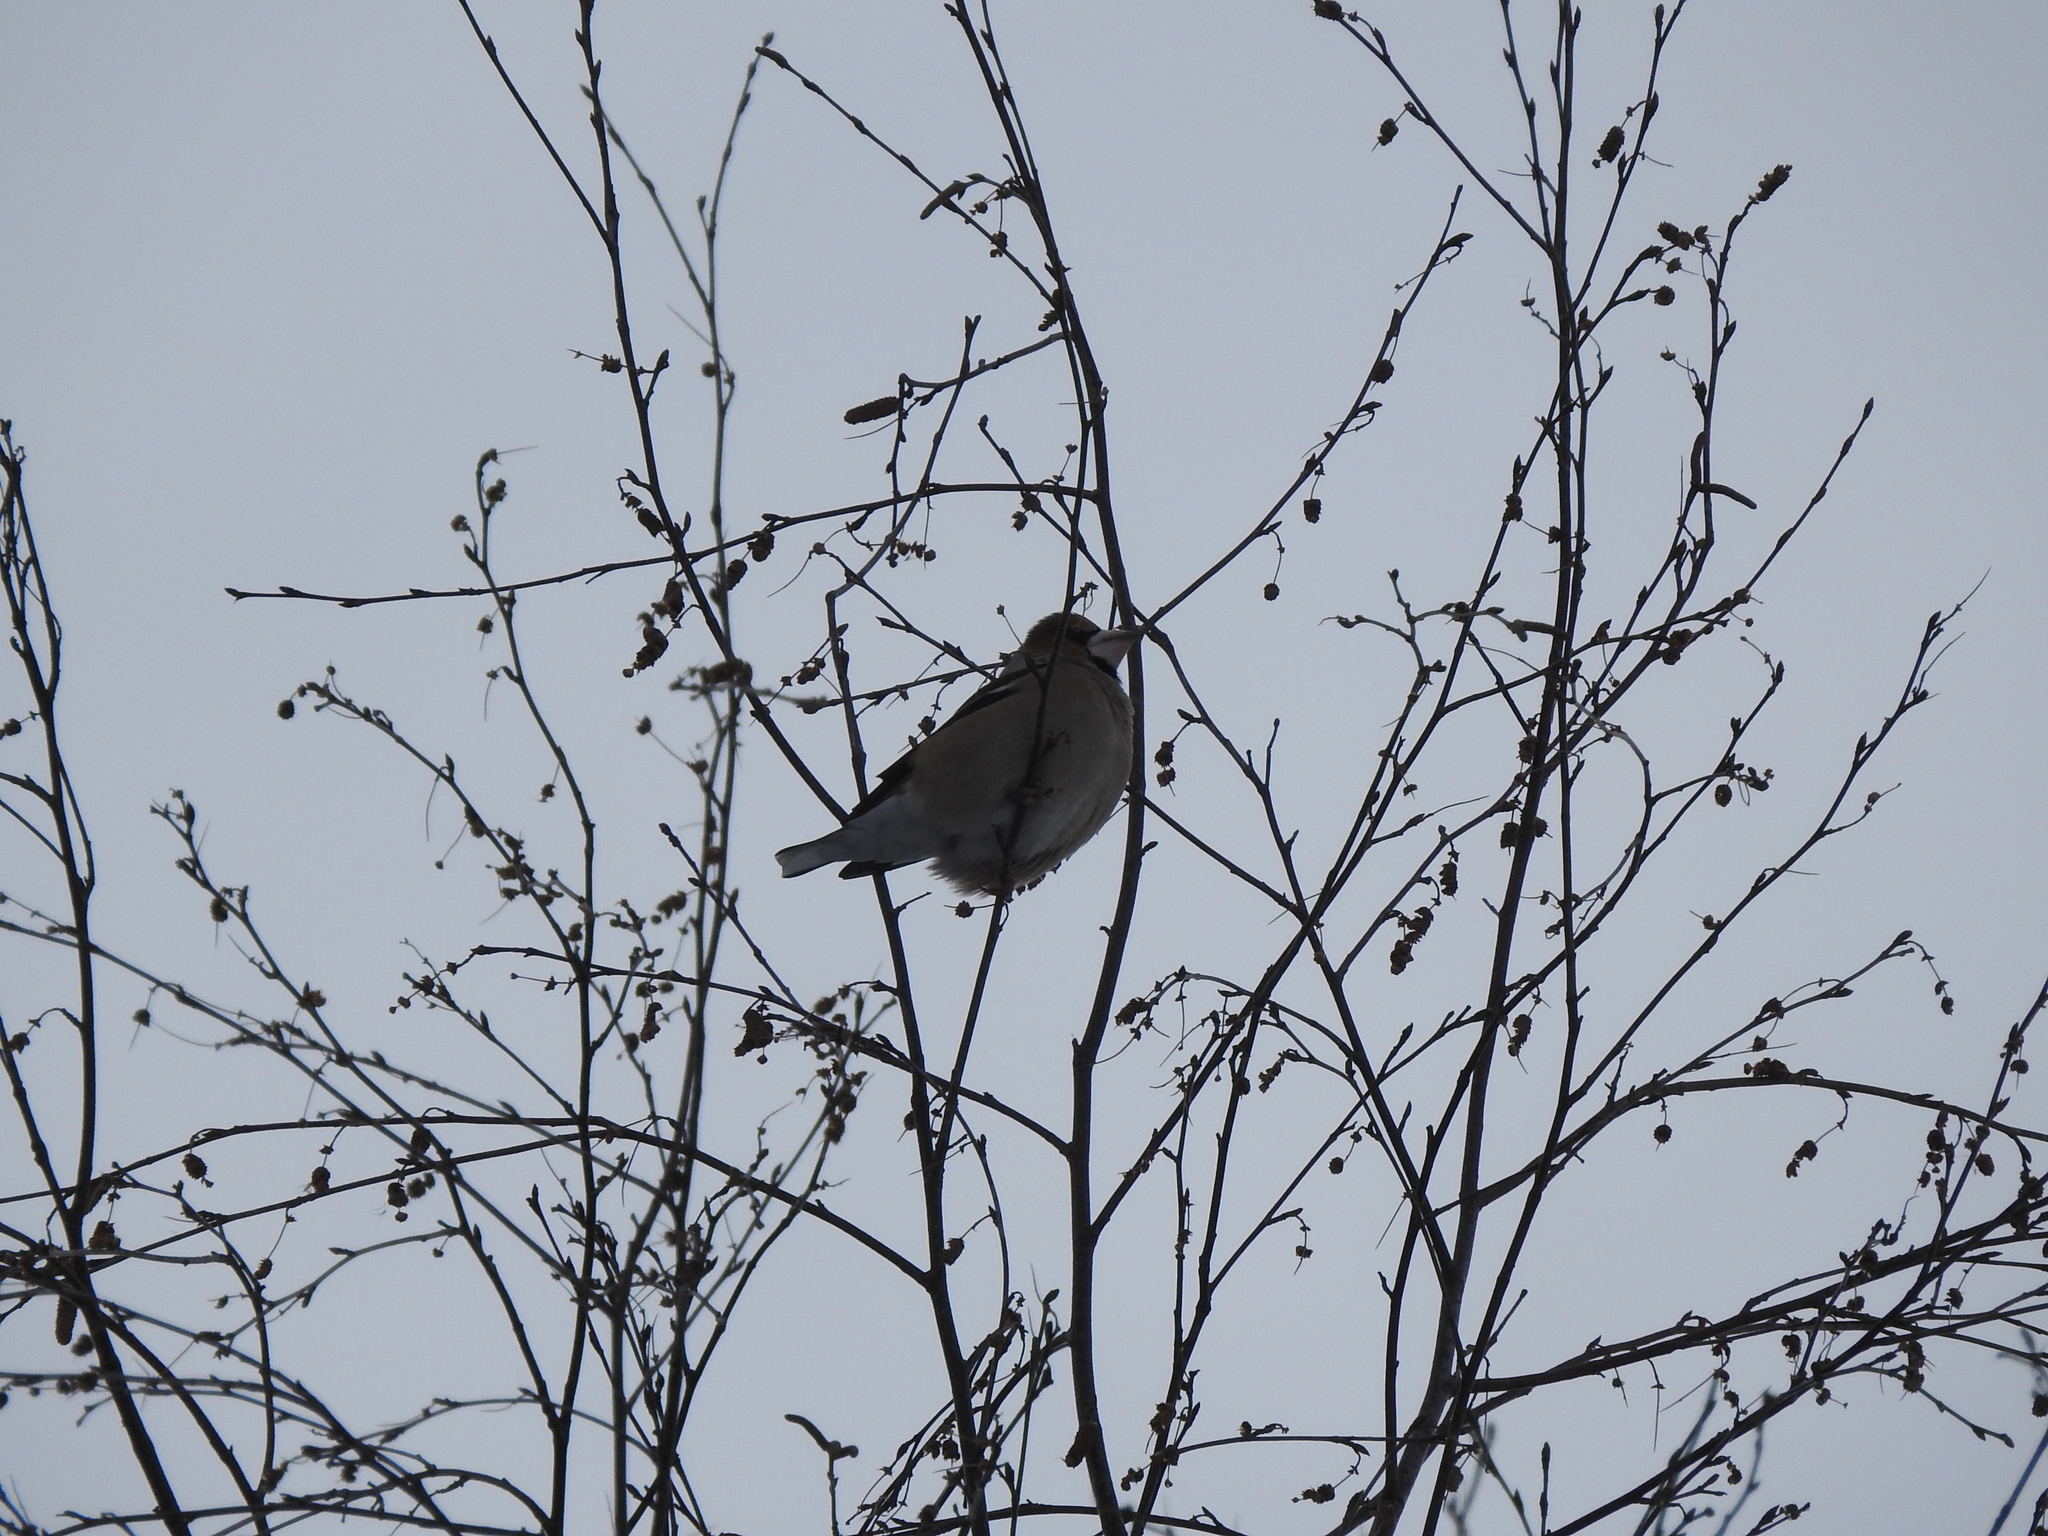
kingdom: Animalia
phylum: Chordata
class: Aves
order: Passeriformes
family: Fringillidae
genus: Coccothraustes
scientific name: Coccothraustes coccothraustes
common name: Hawfinch
